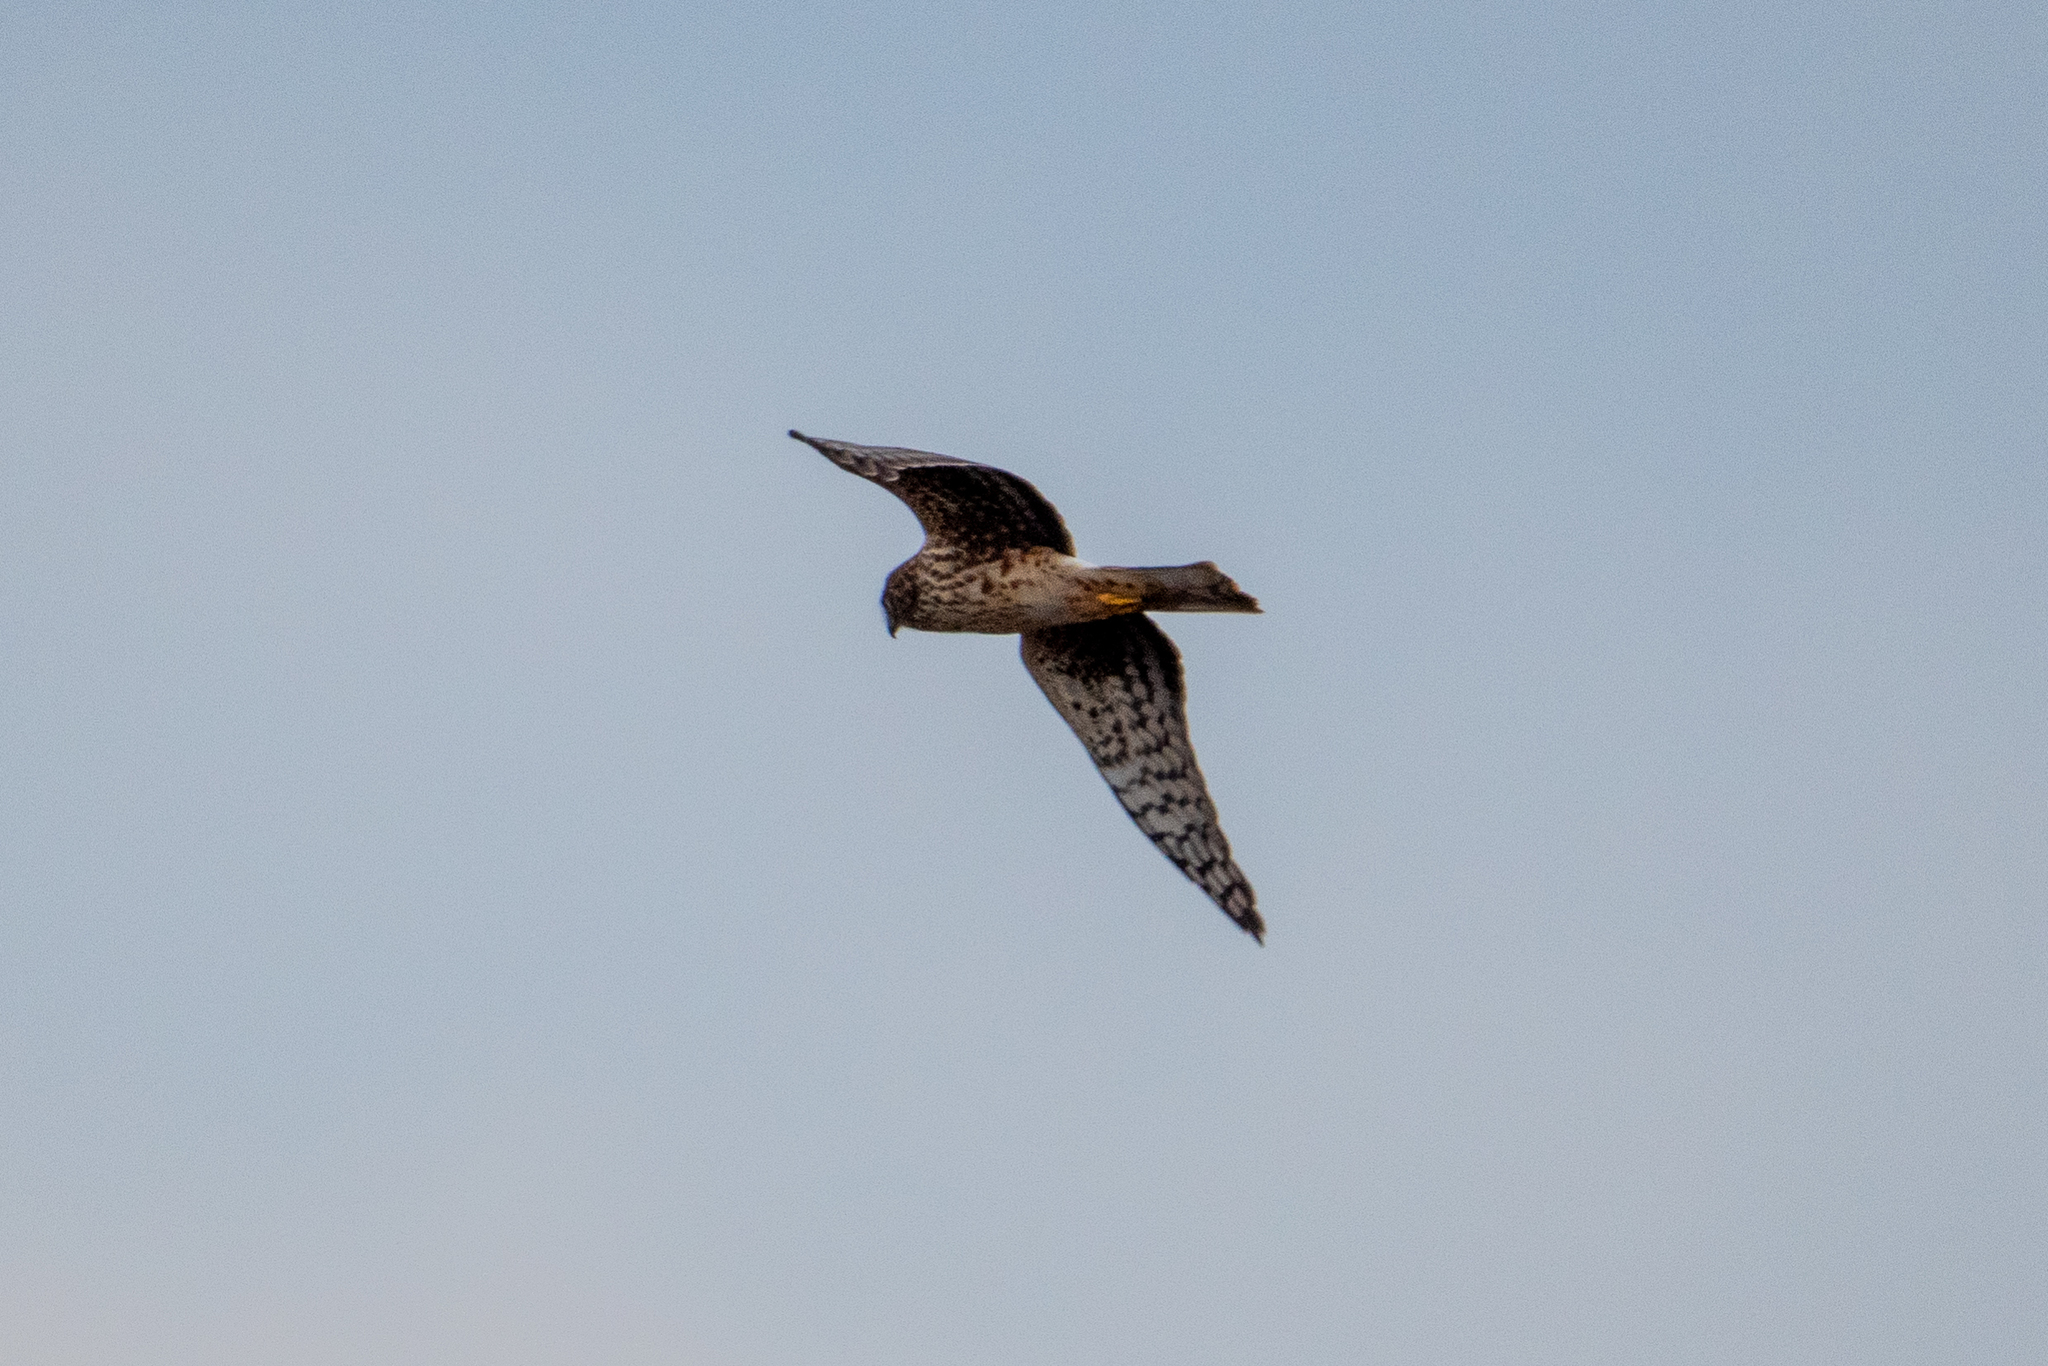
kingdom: Animalia
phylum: Chordata
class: Aves
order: Accipitriformes
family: Accipitridae
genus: Circus
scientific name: Circus cyaneus
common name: Hen harrier
